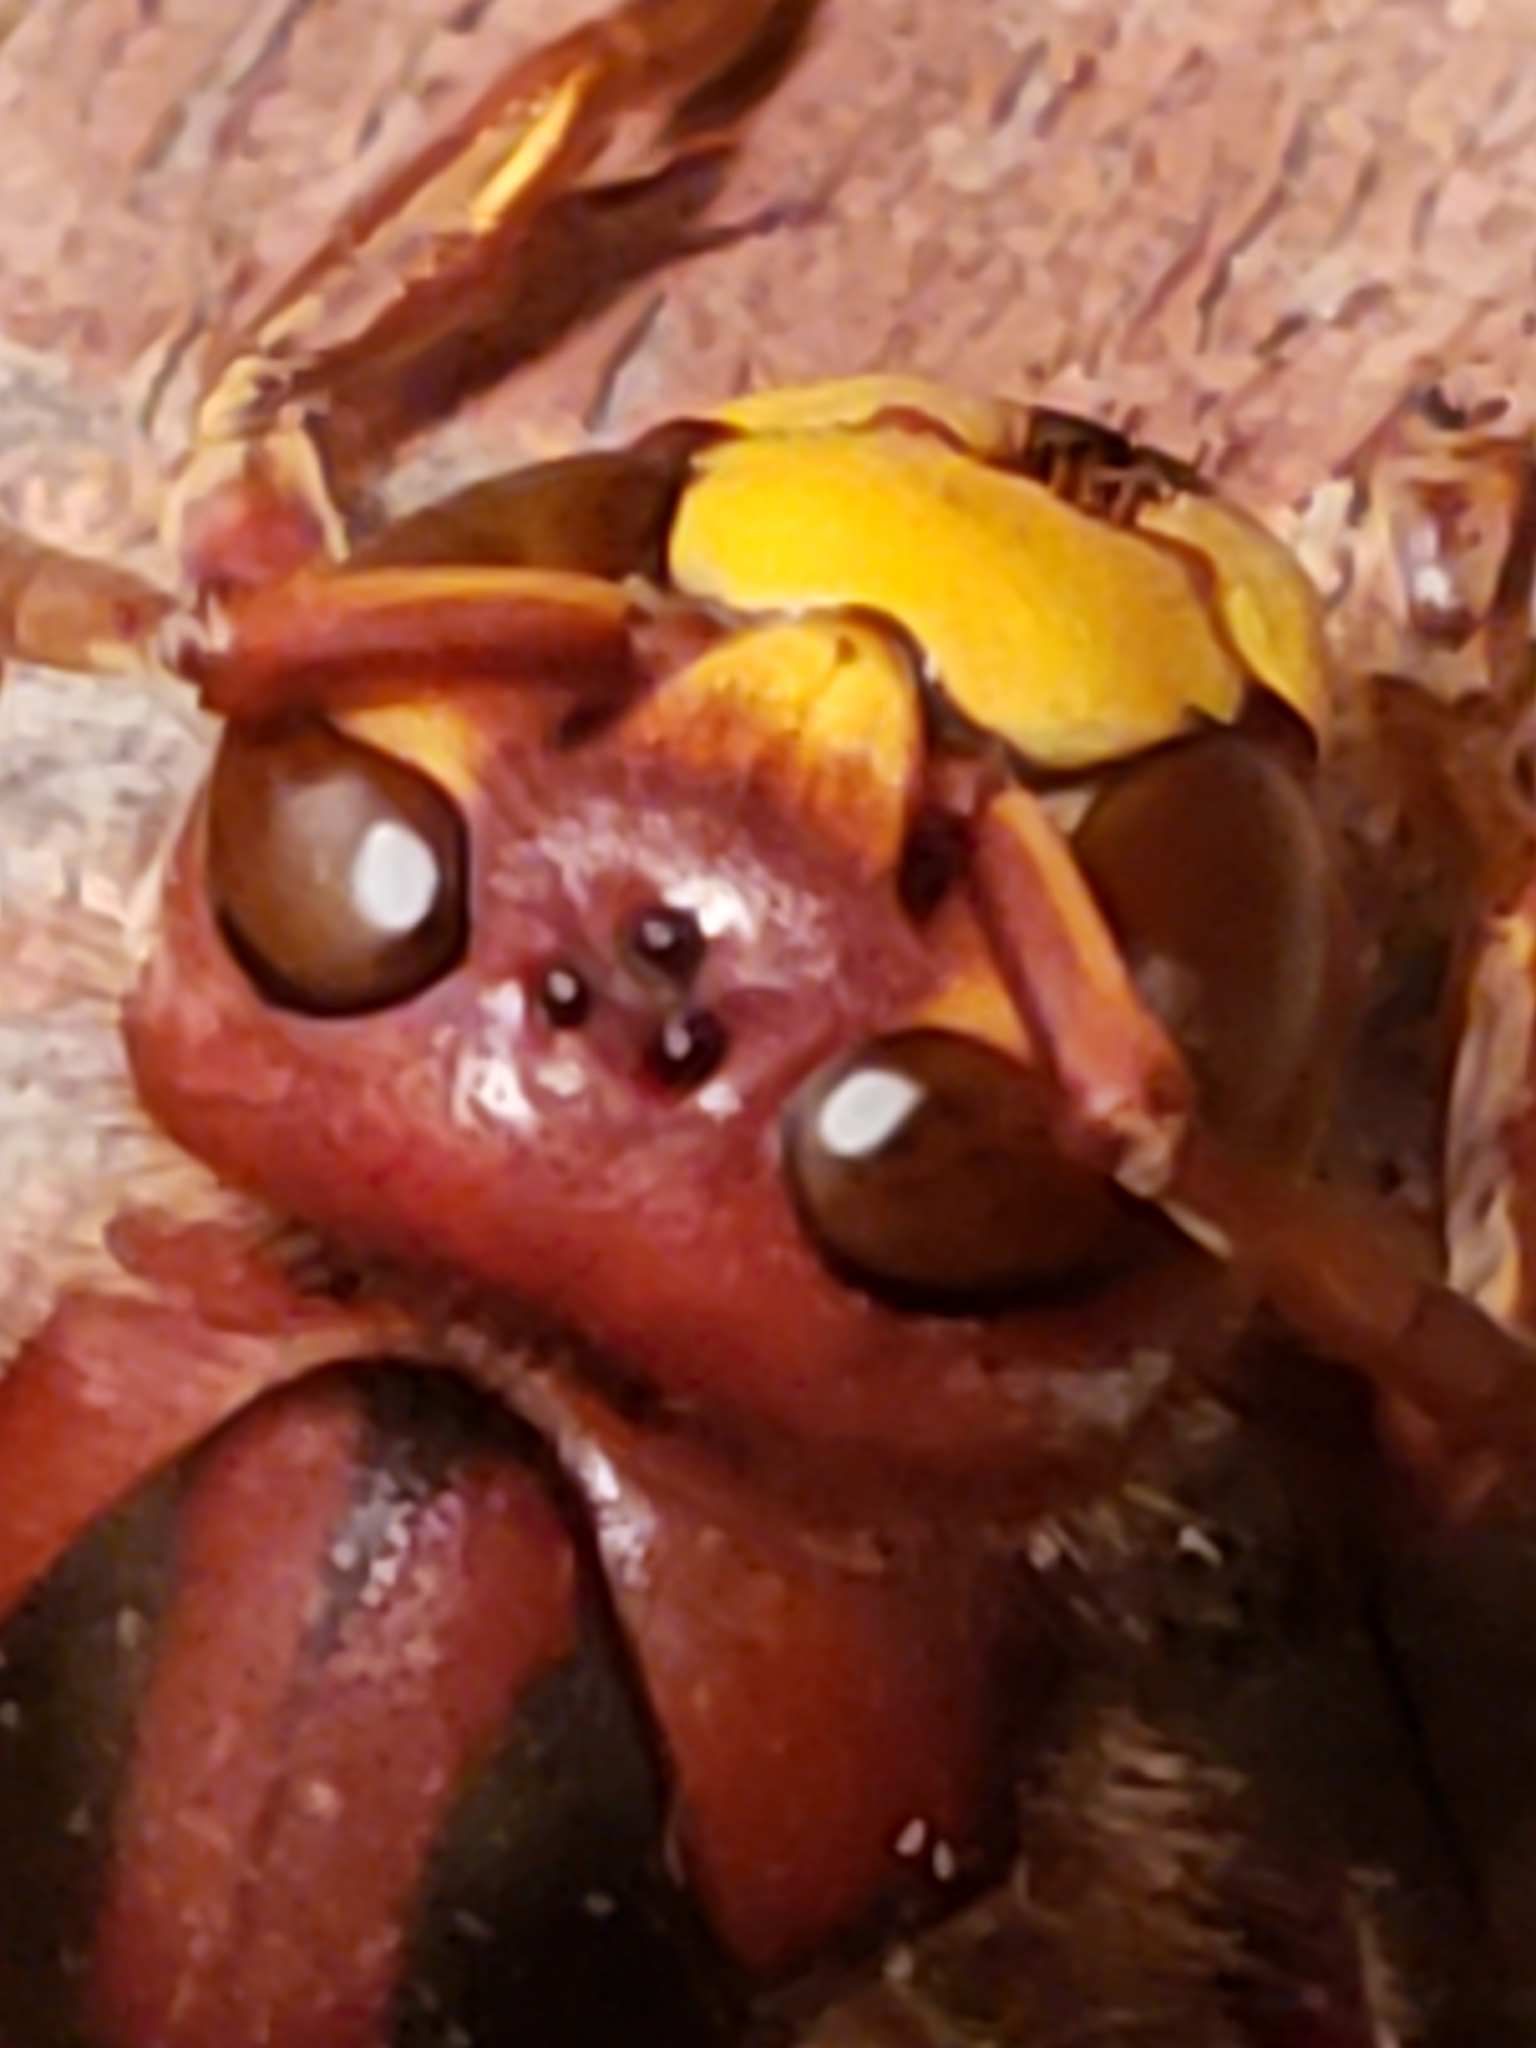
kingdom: Animalia
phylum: Arthropoda
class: Insecta
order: Hymenoptera
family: Vespidae
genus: Vespa
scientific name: Vespa crabro
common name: Hornet
